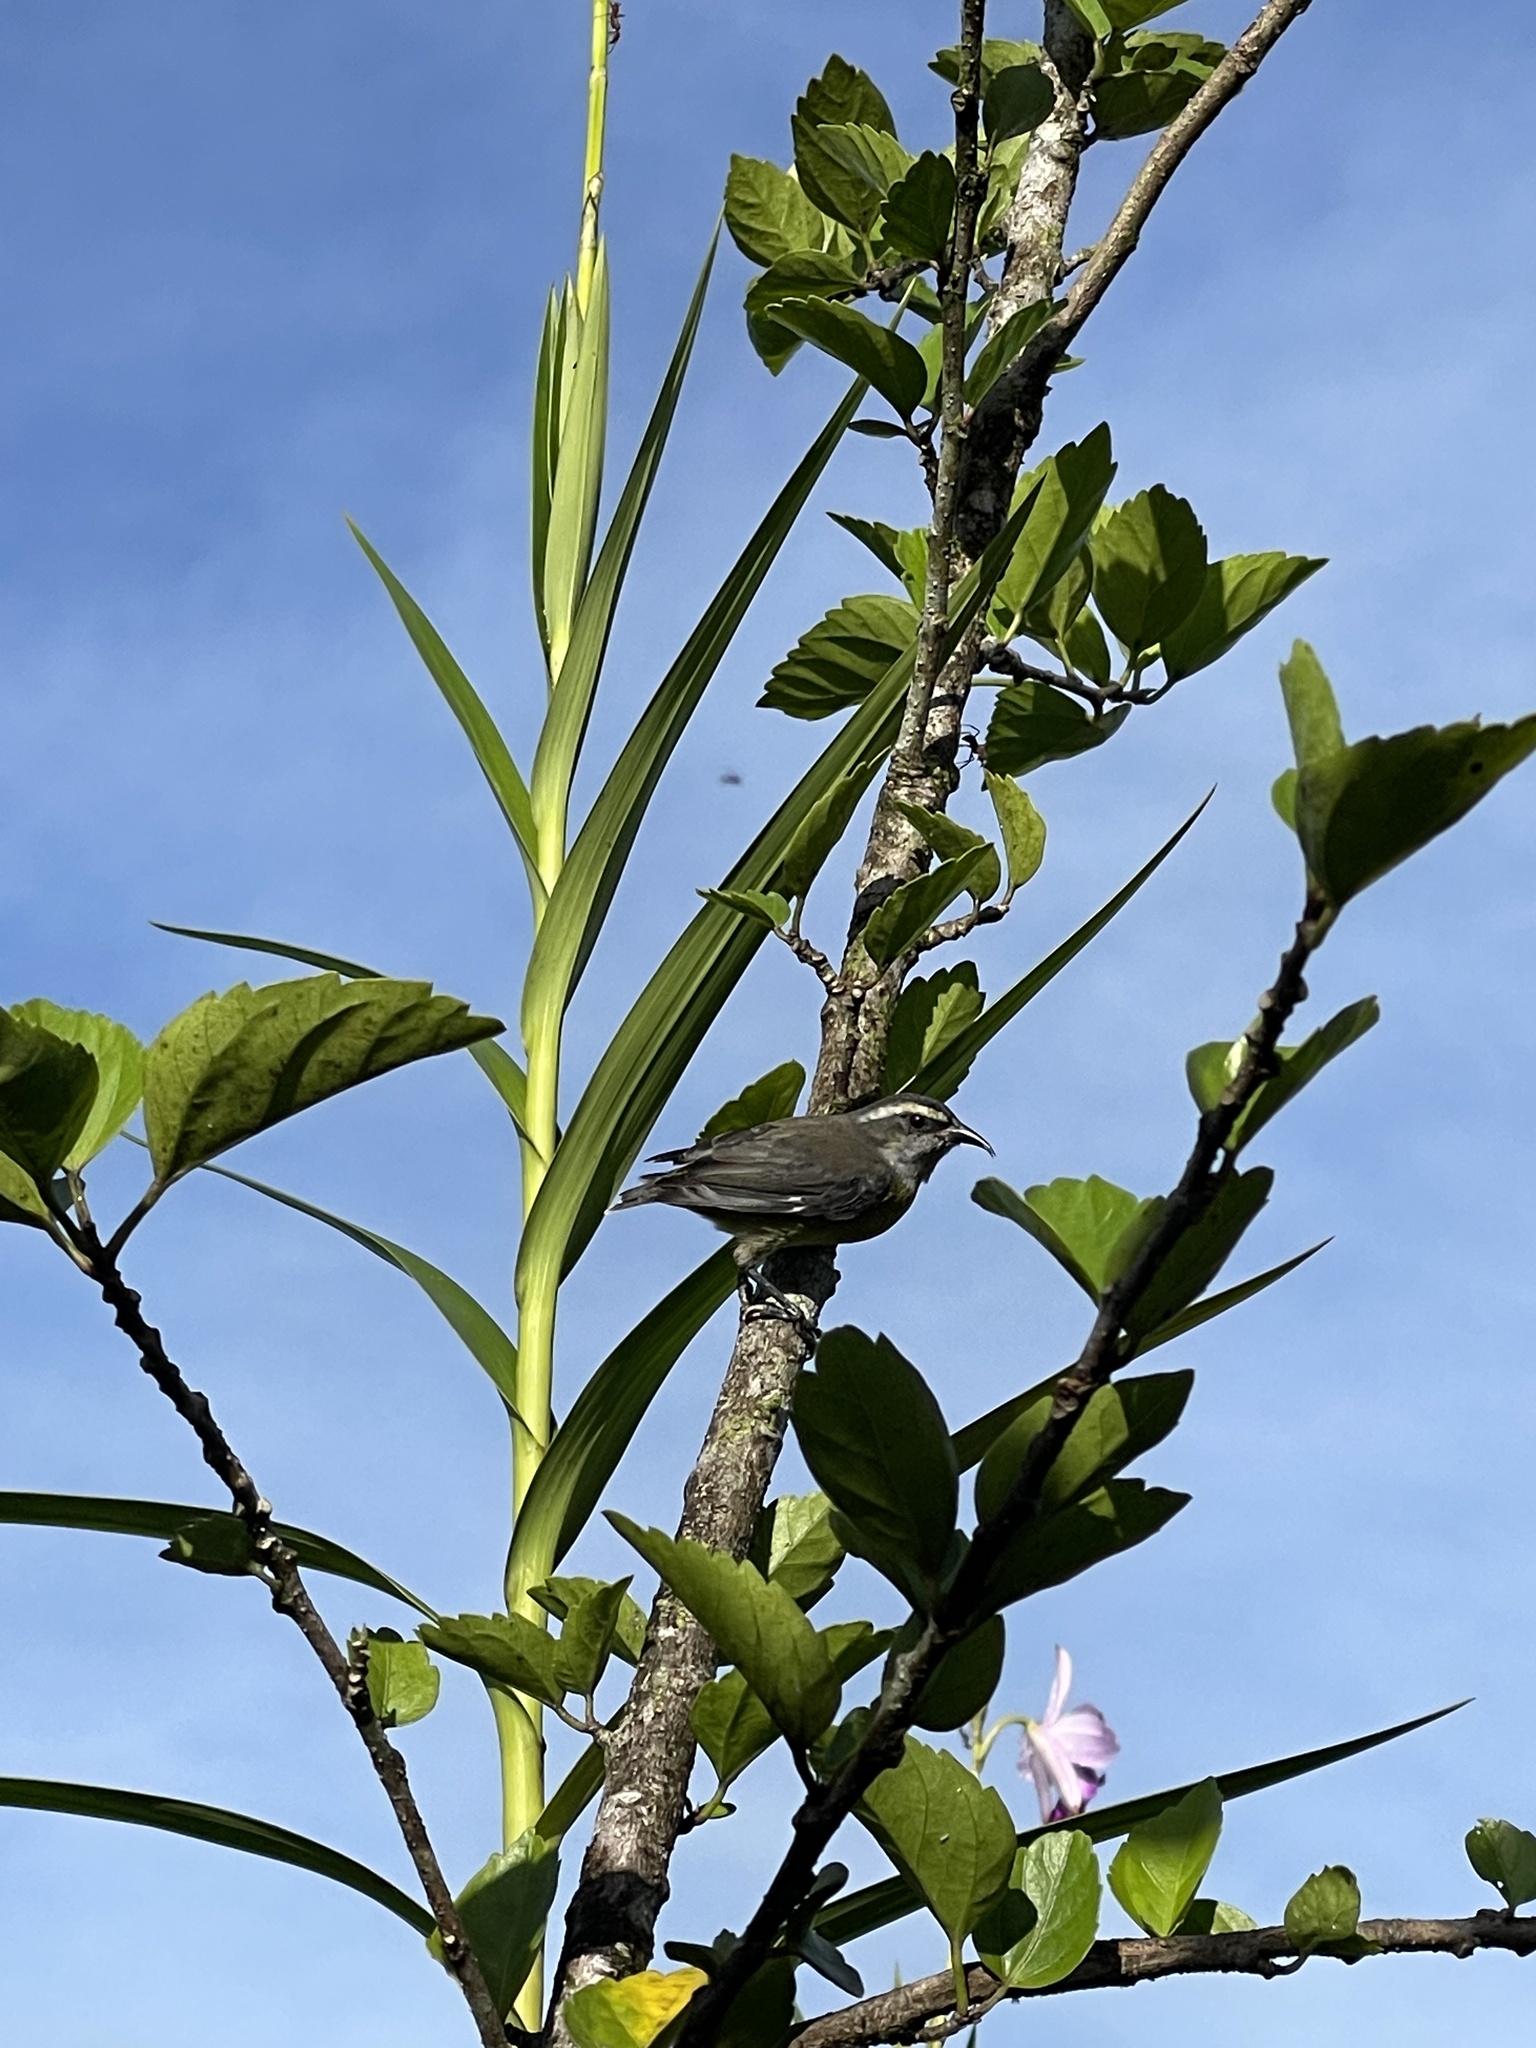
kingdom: Animalia
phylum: Chordata
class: Aves
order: Passeriformes
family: Thraupidae
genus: Coereba
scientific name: Coereba flaveola
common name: Bananaquit
